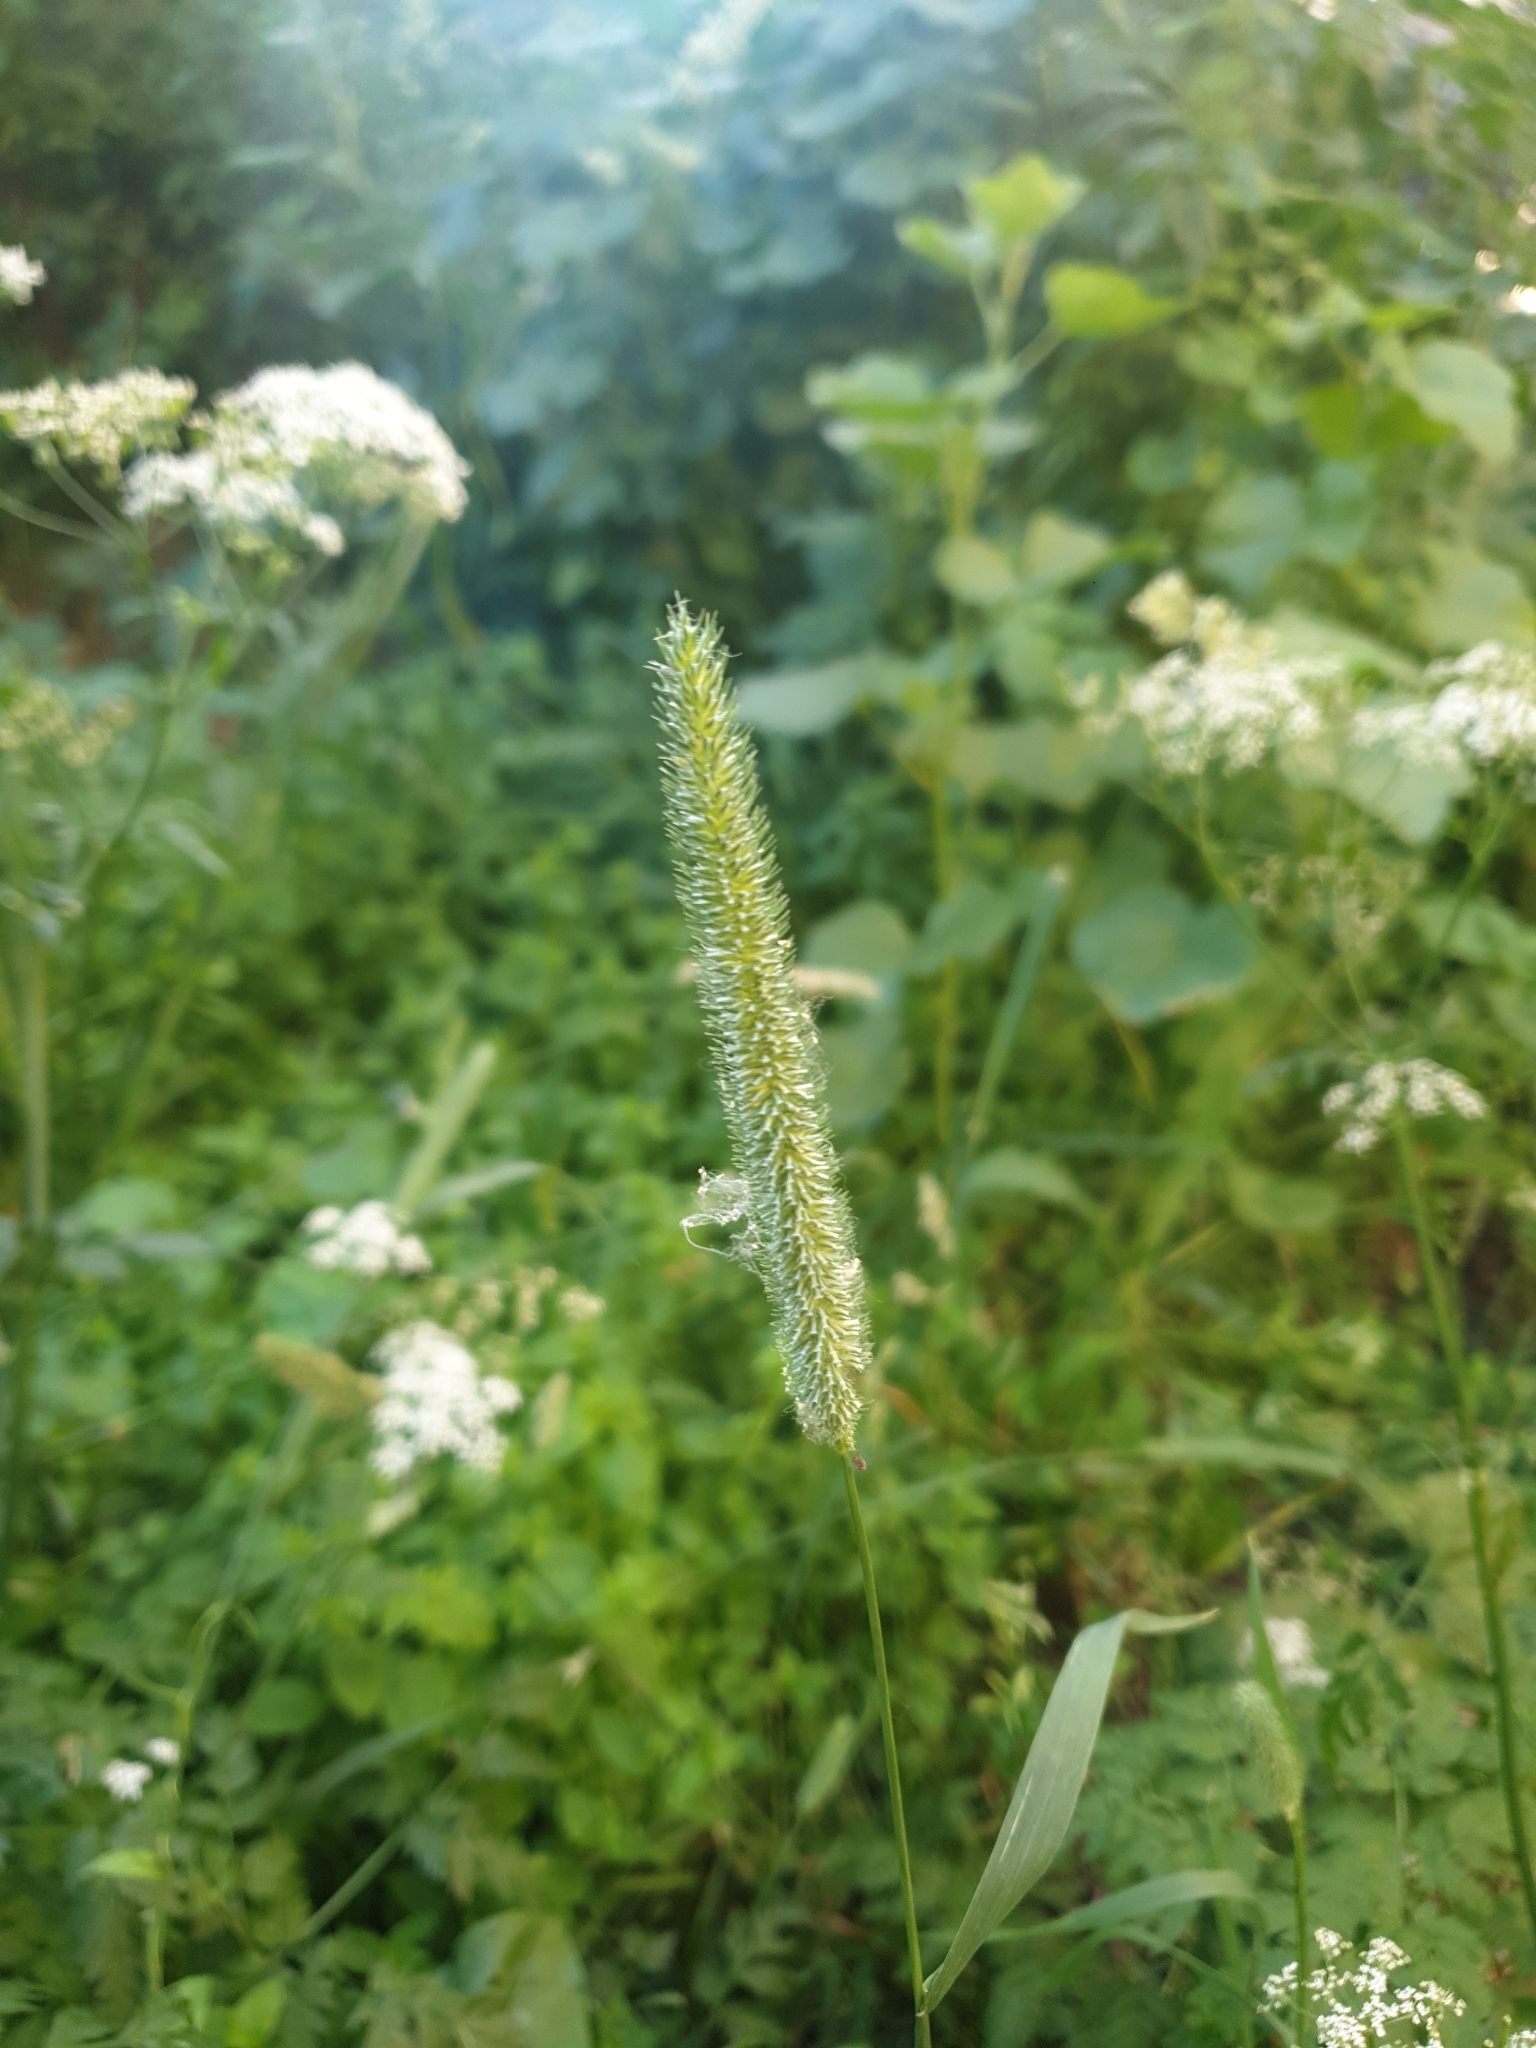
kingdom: Plantae
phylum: Tracheophyta
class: Liliopsida
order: Poales
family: Poaceae
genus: Phleum
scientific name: Phleum pratense
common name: Timothy grass
